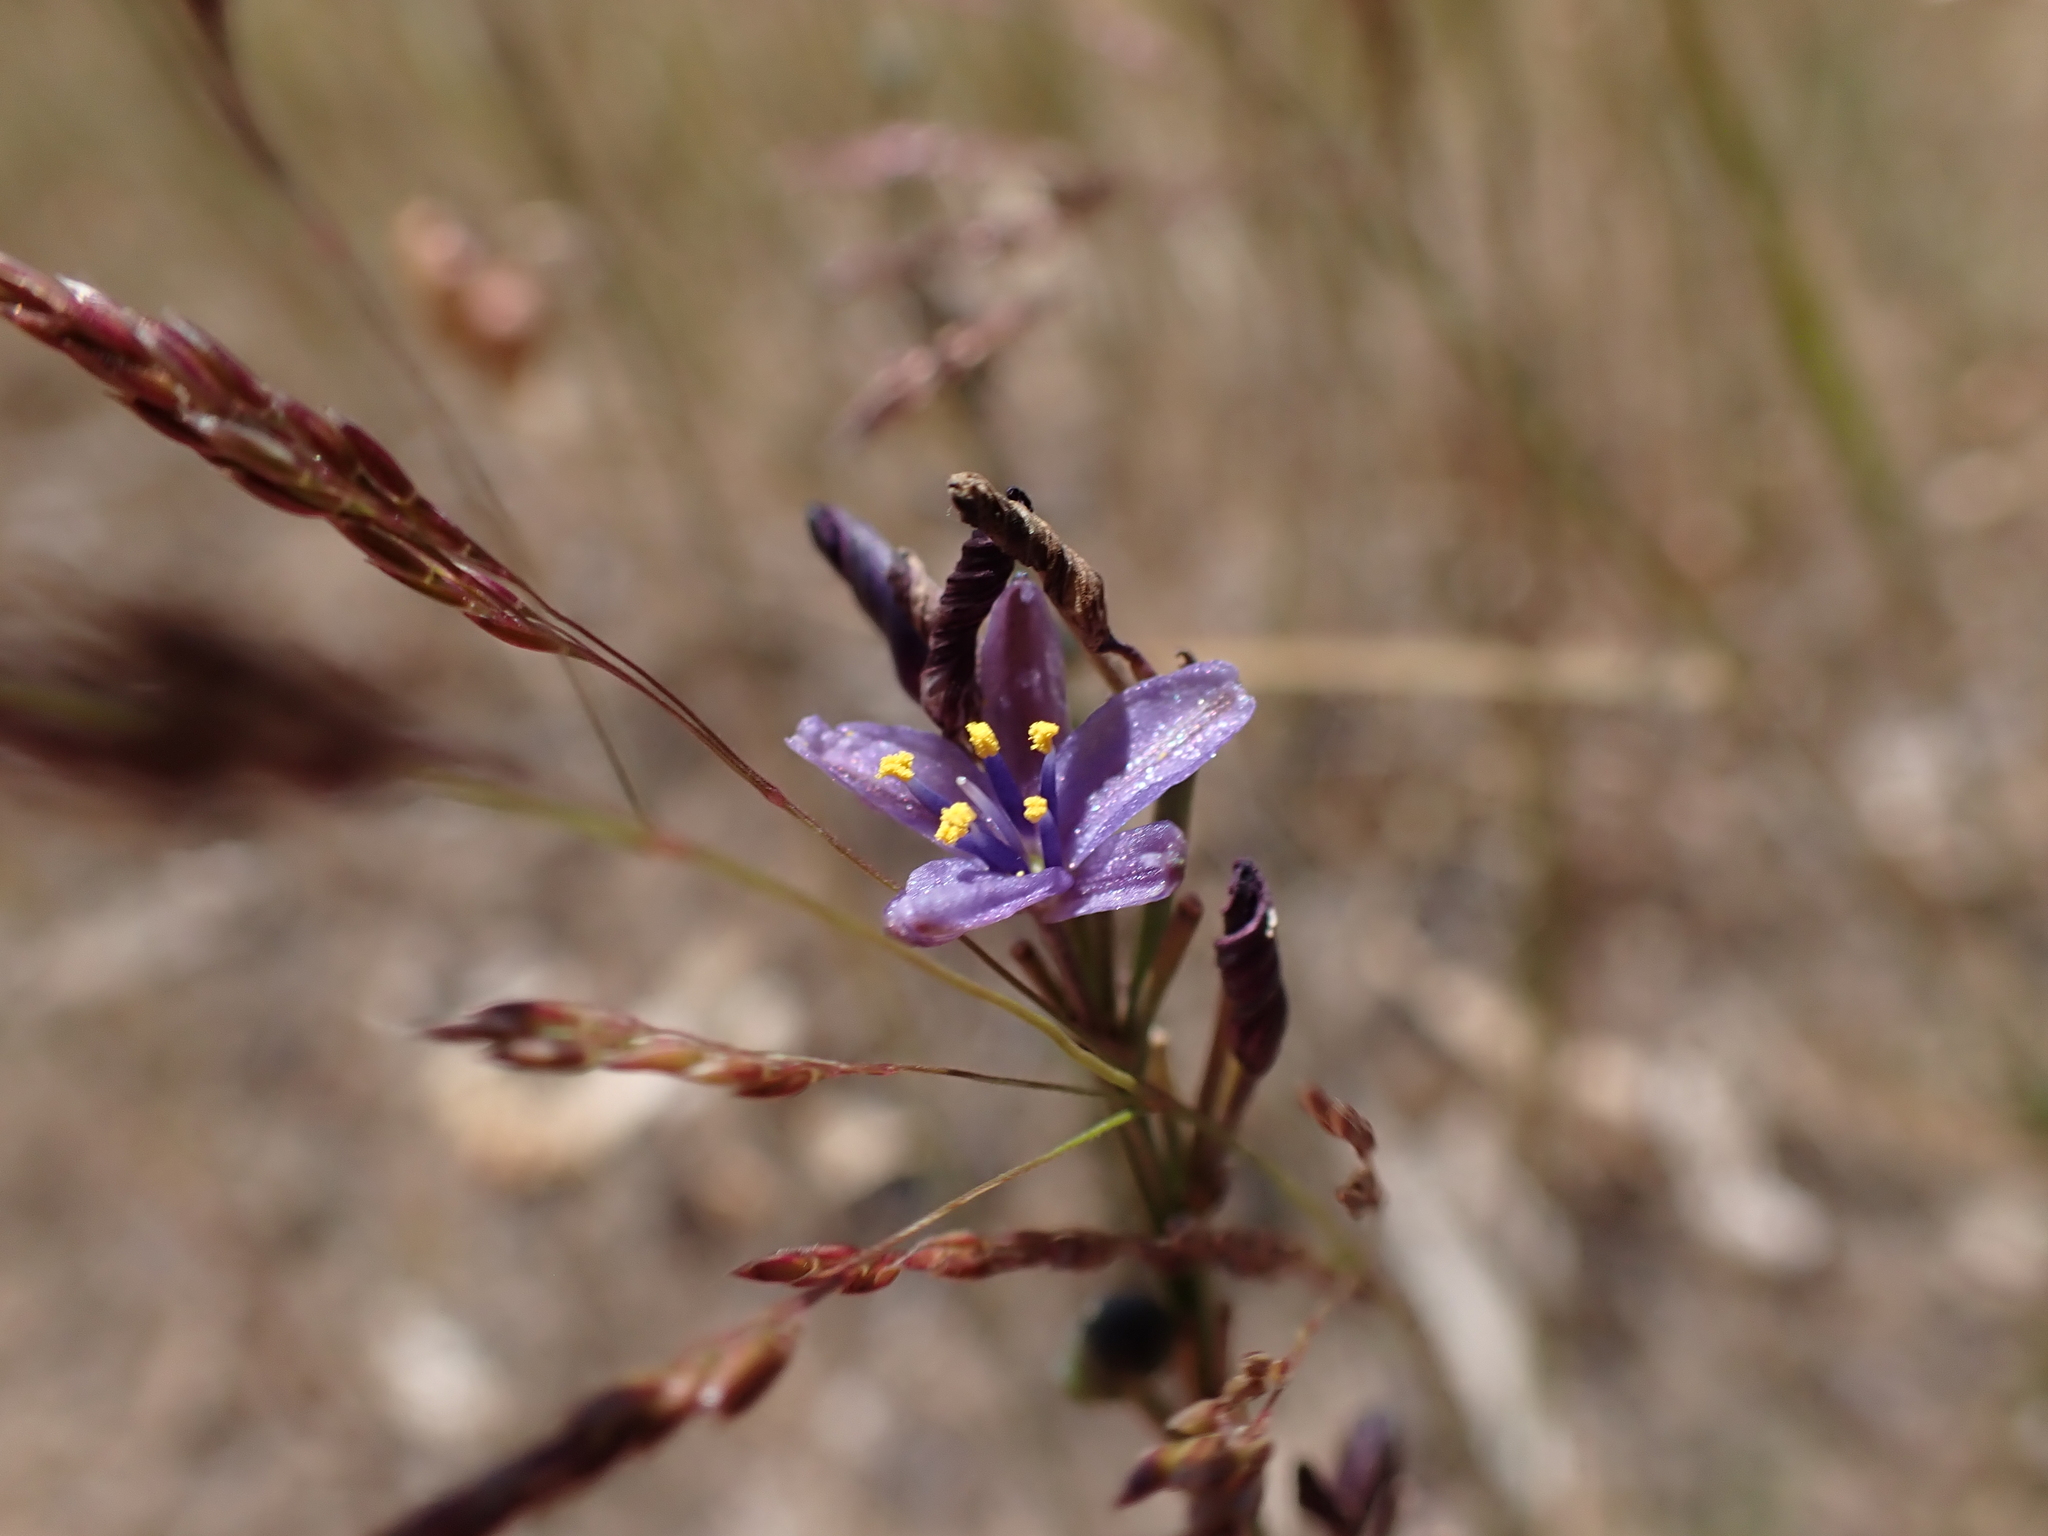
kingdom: Plantae
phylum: Tracheophyta
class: Liliopsida
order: Asparagales
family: Asphodelaceae
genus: Caesia
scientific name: Caesia calliantha
